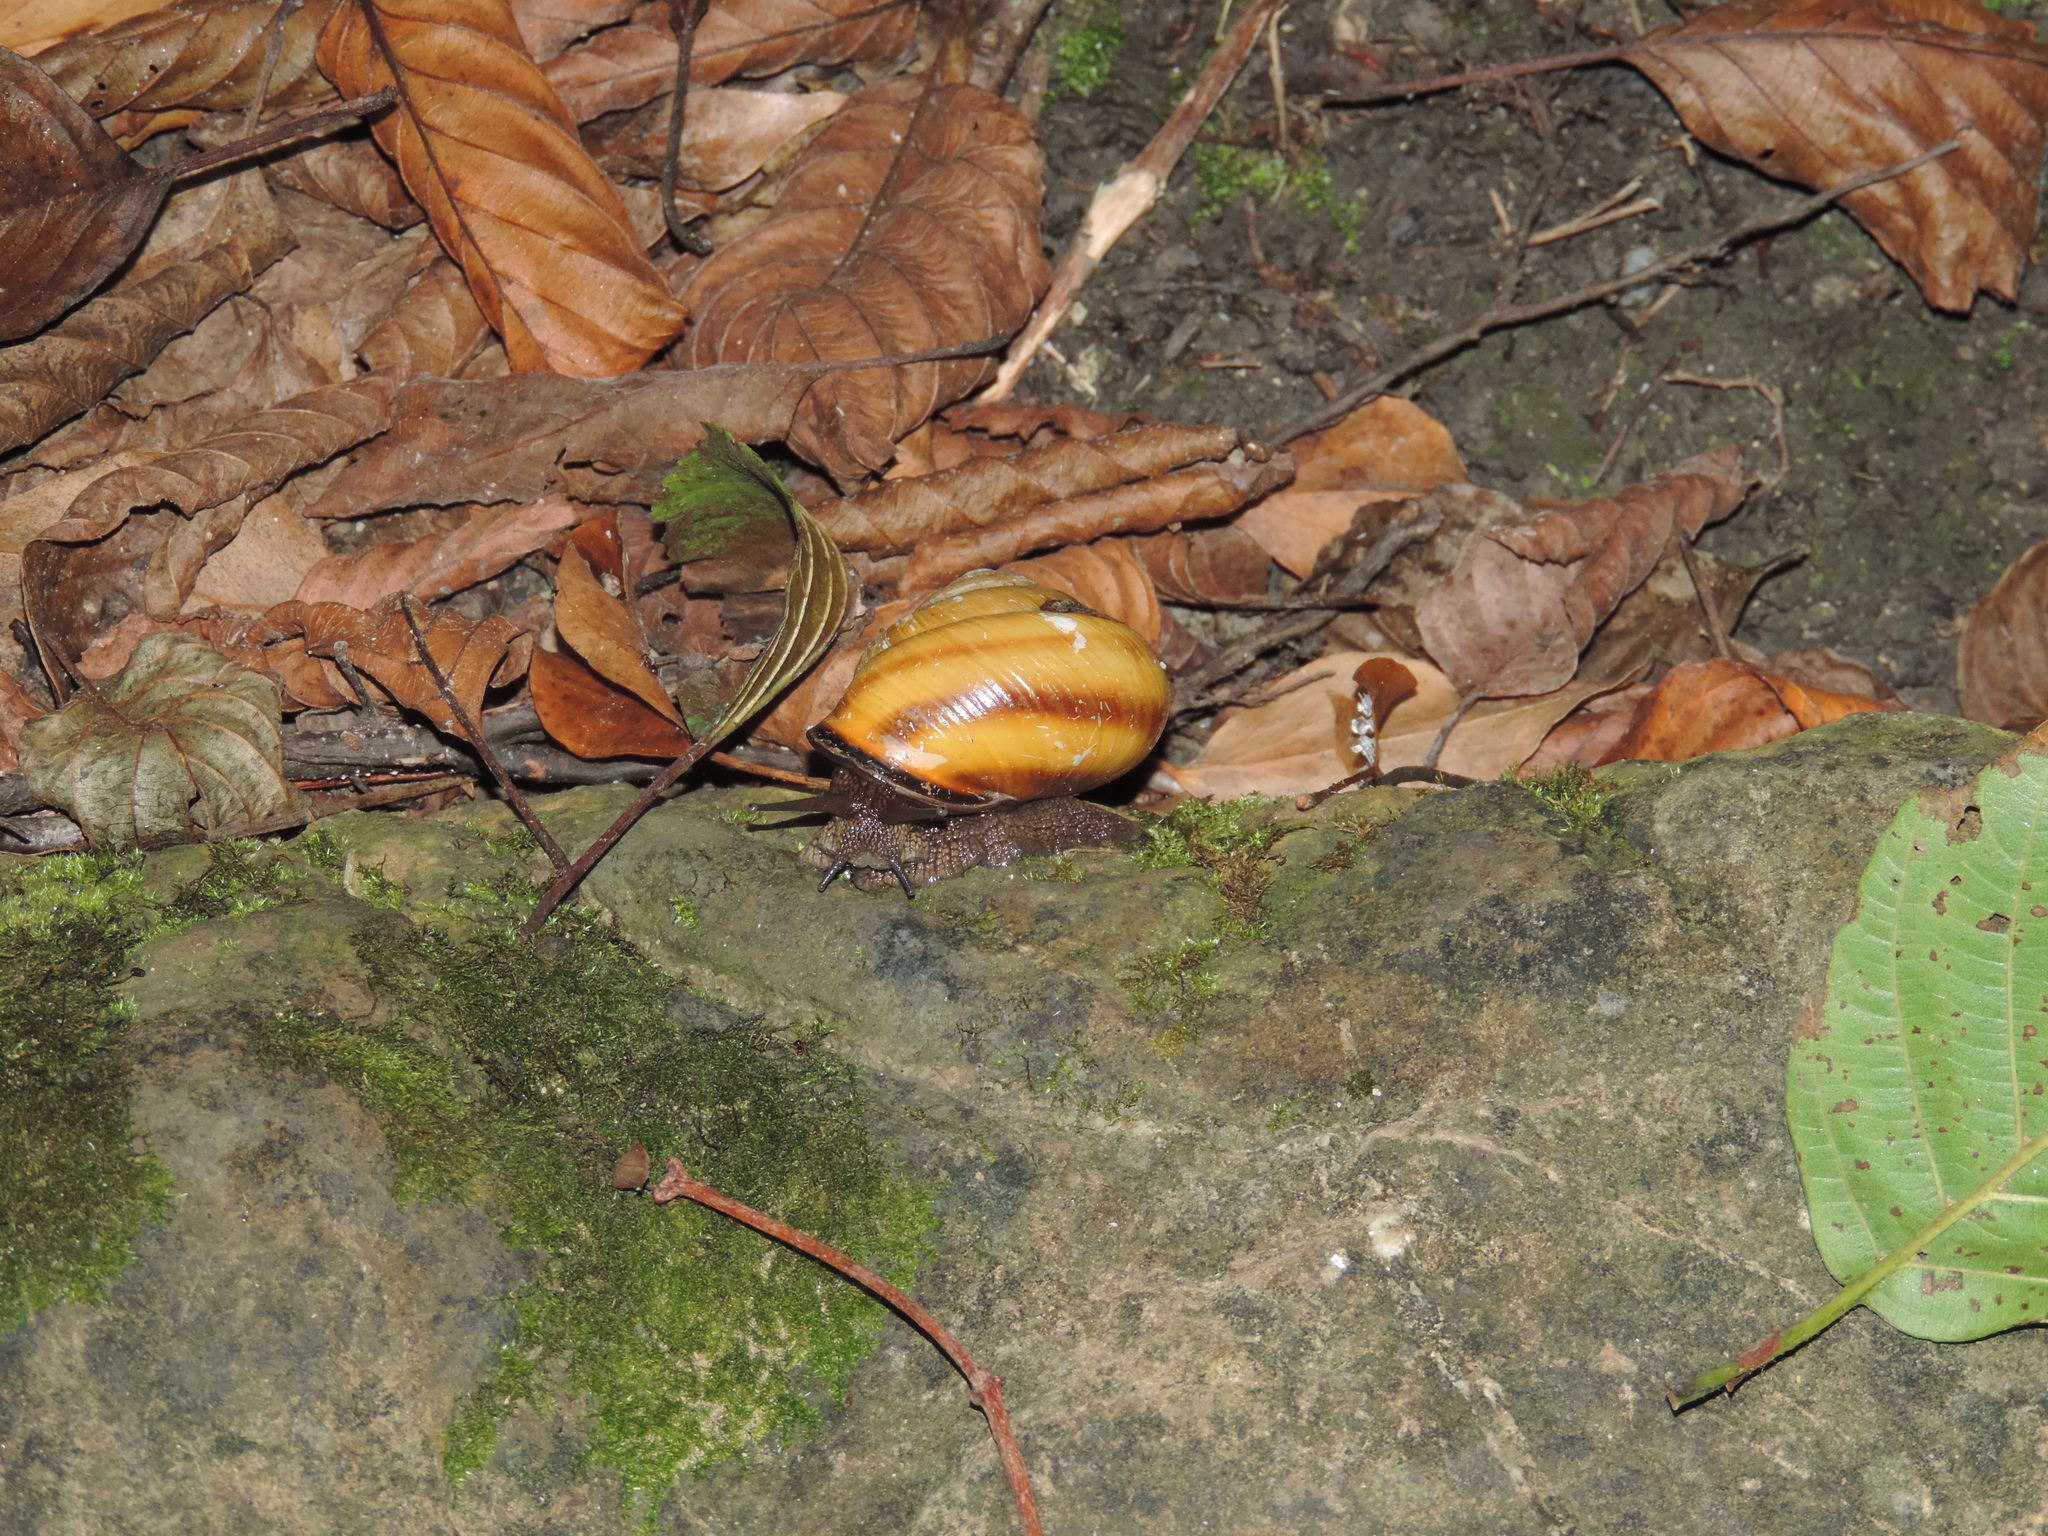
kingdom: Animalia
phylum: Mollusca
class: Gastropoda
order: Stylommatophora
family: Helicidae
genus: Caucasotachea
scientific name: Caucasotachea atrolabiata
